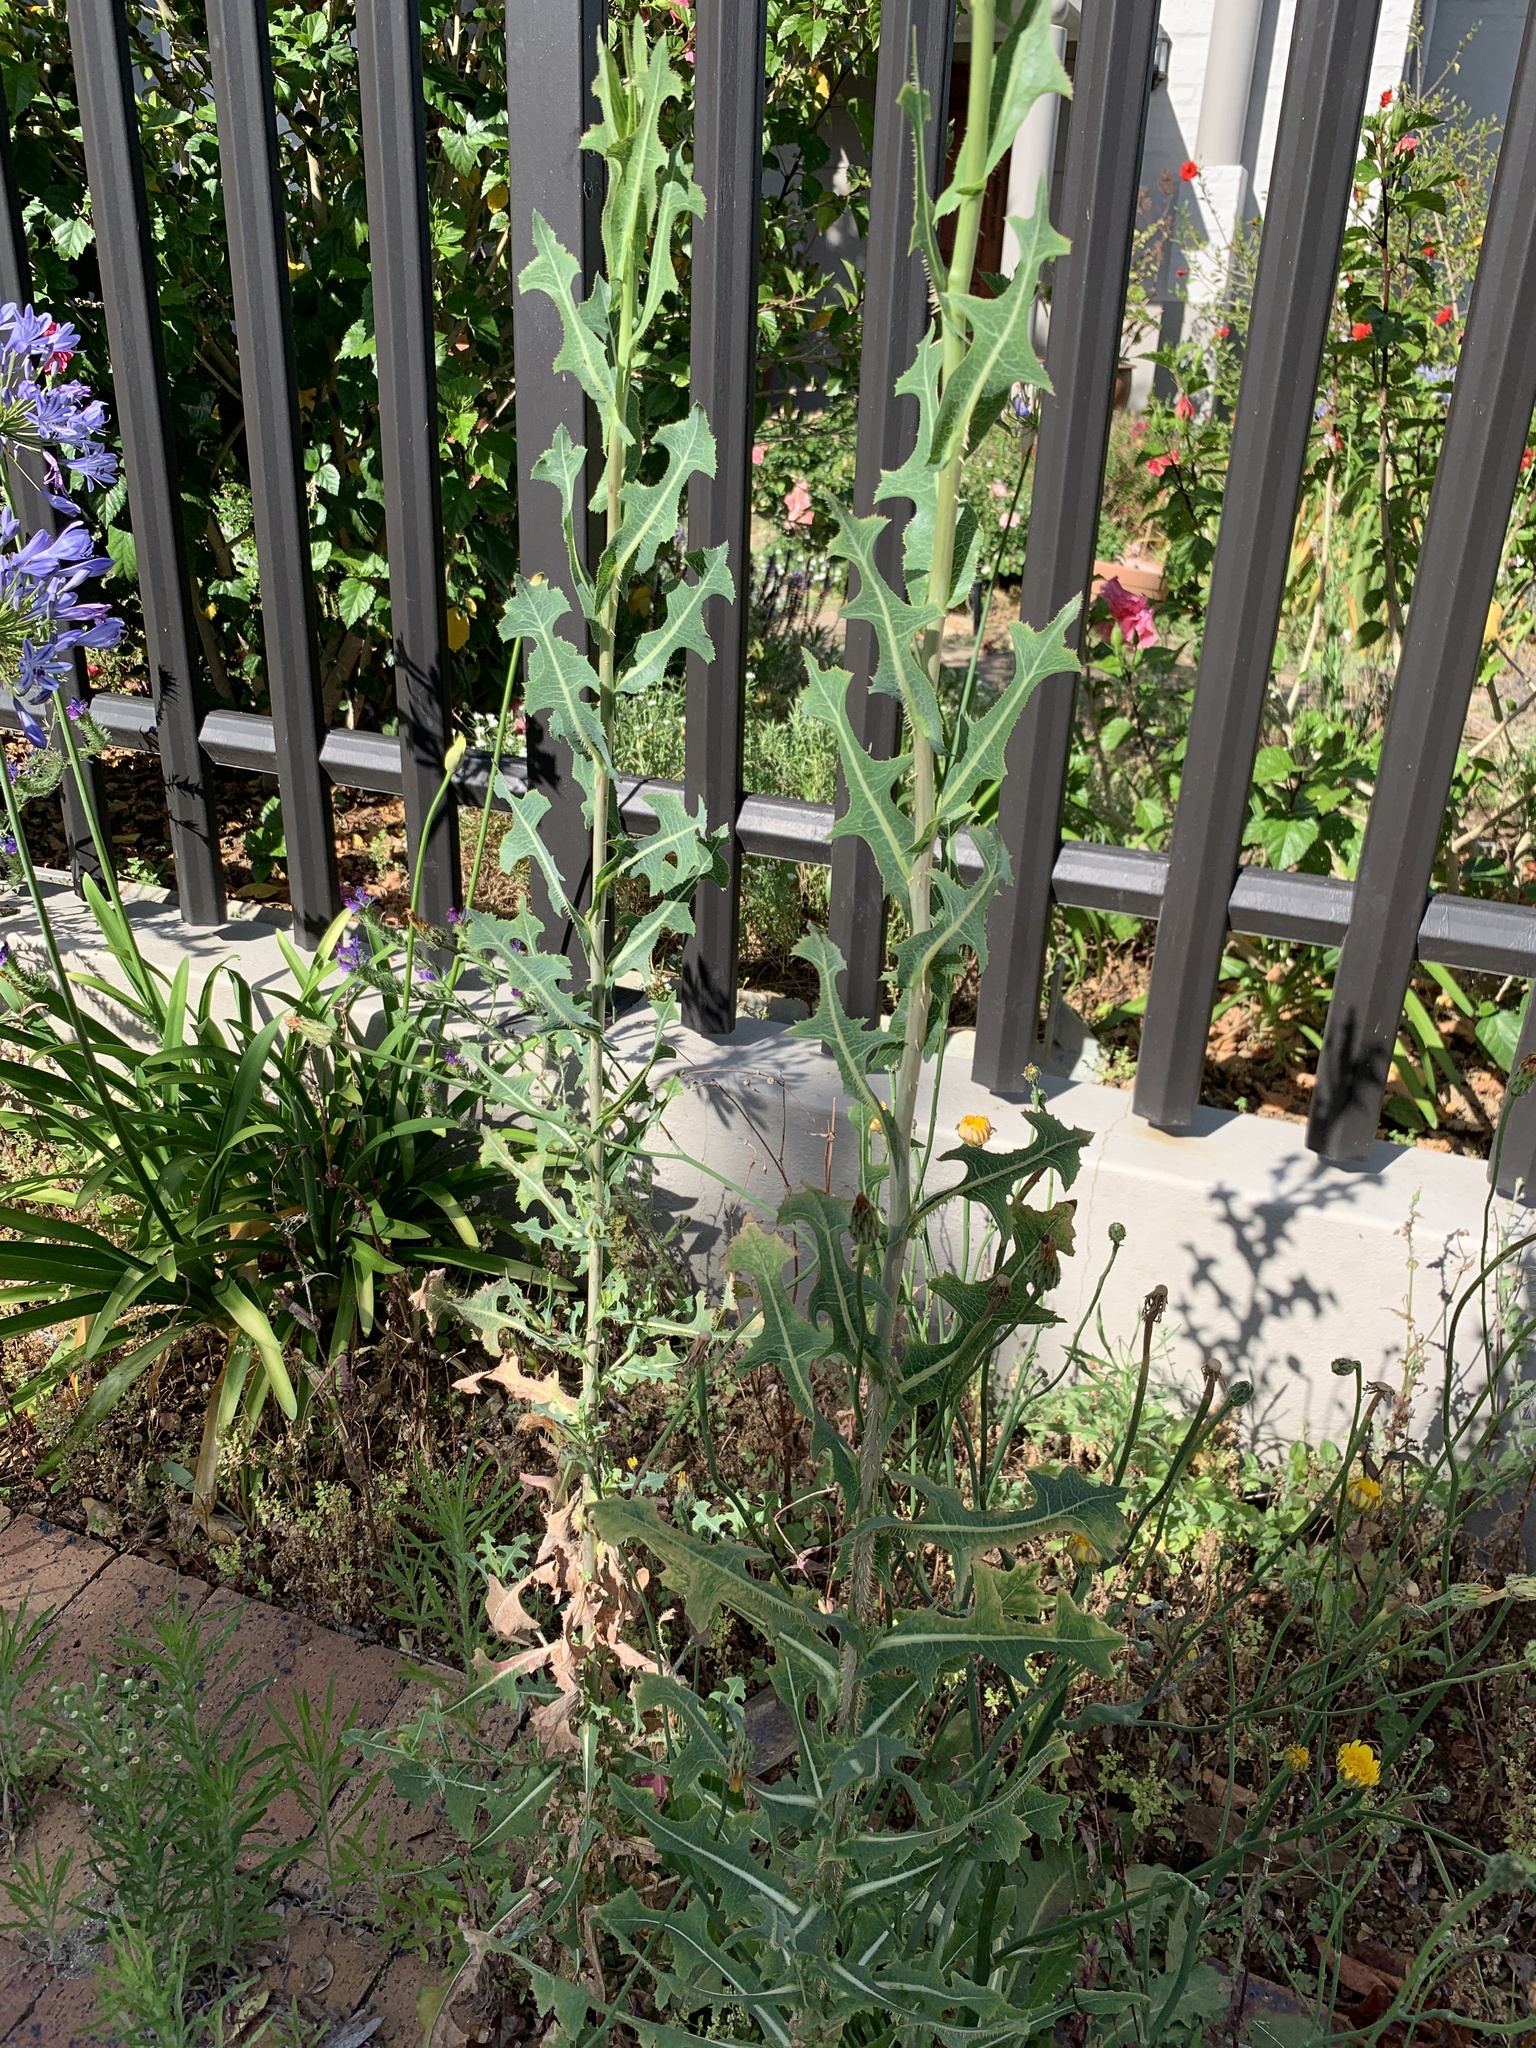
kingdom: Plantae
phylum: Tracheophyta
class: Magnoliopsida
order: Asterales
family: Asteraceae
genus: Lactuca
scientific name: Lactuca serriola
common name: Prickly lettuce
